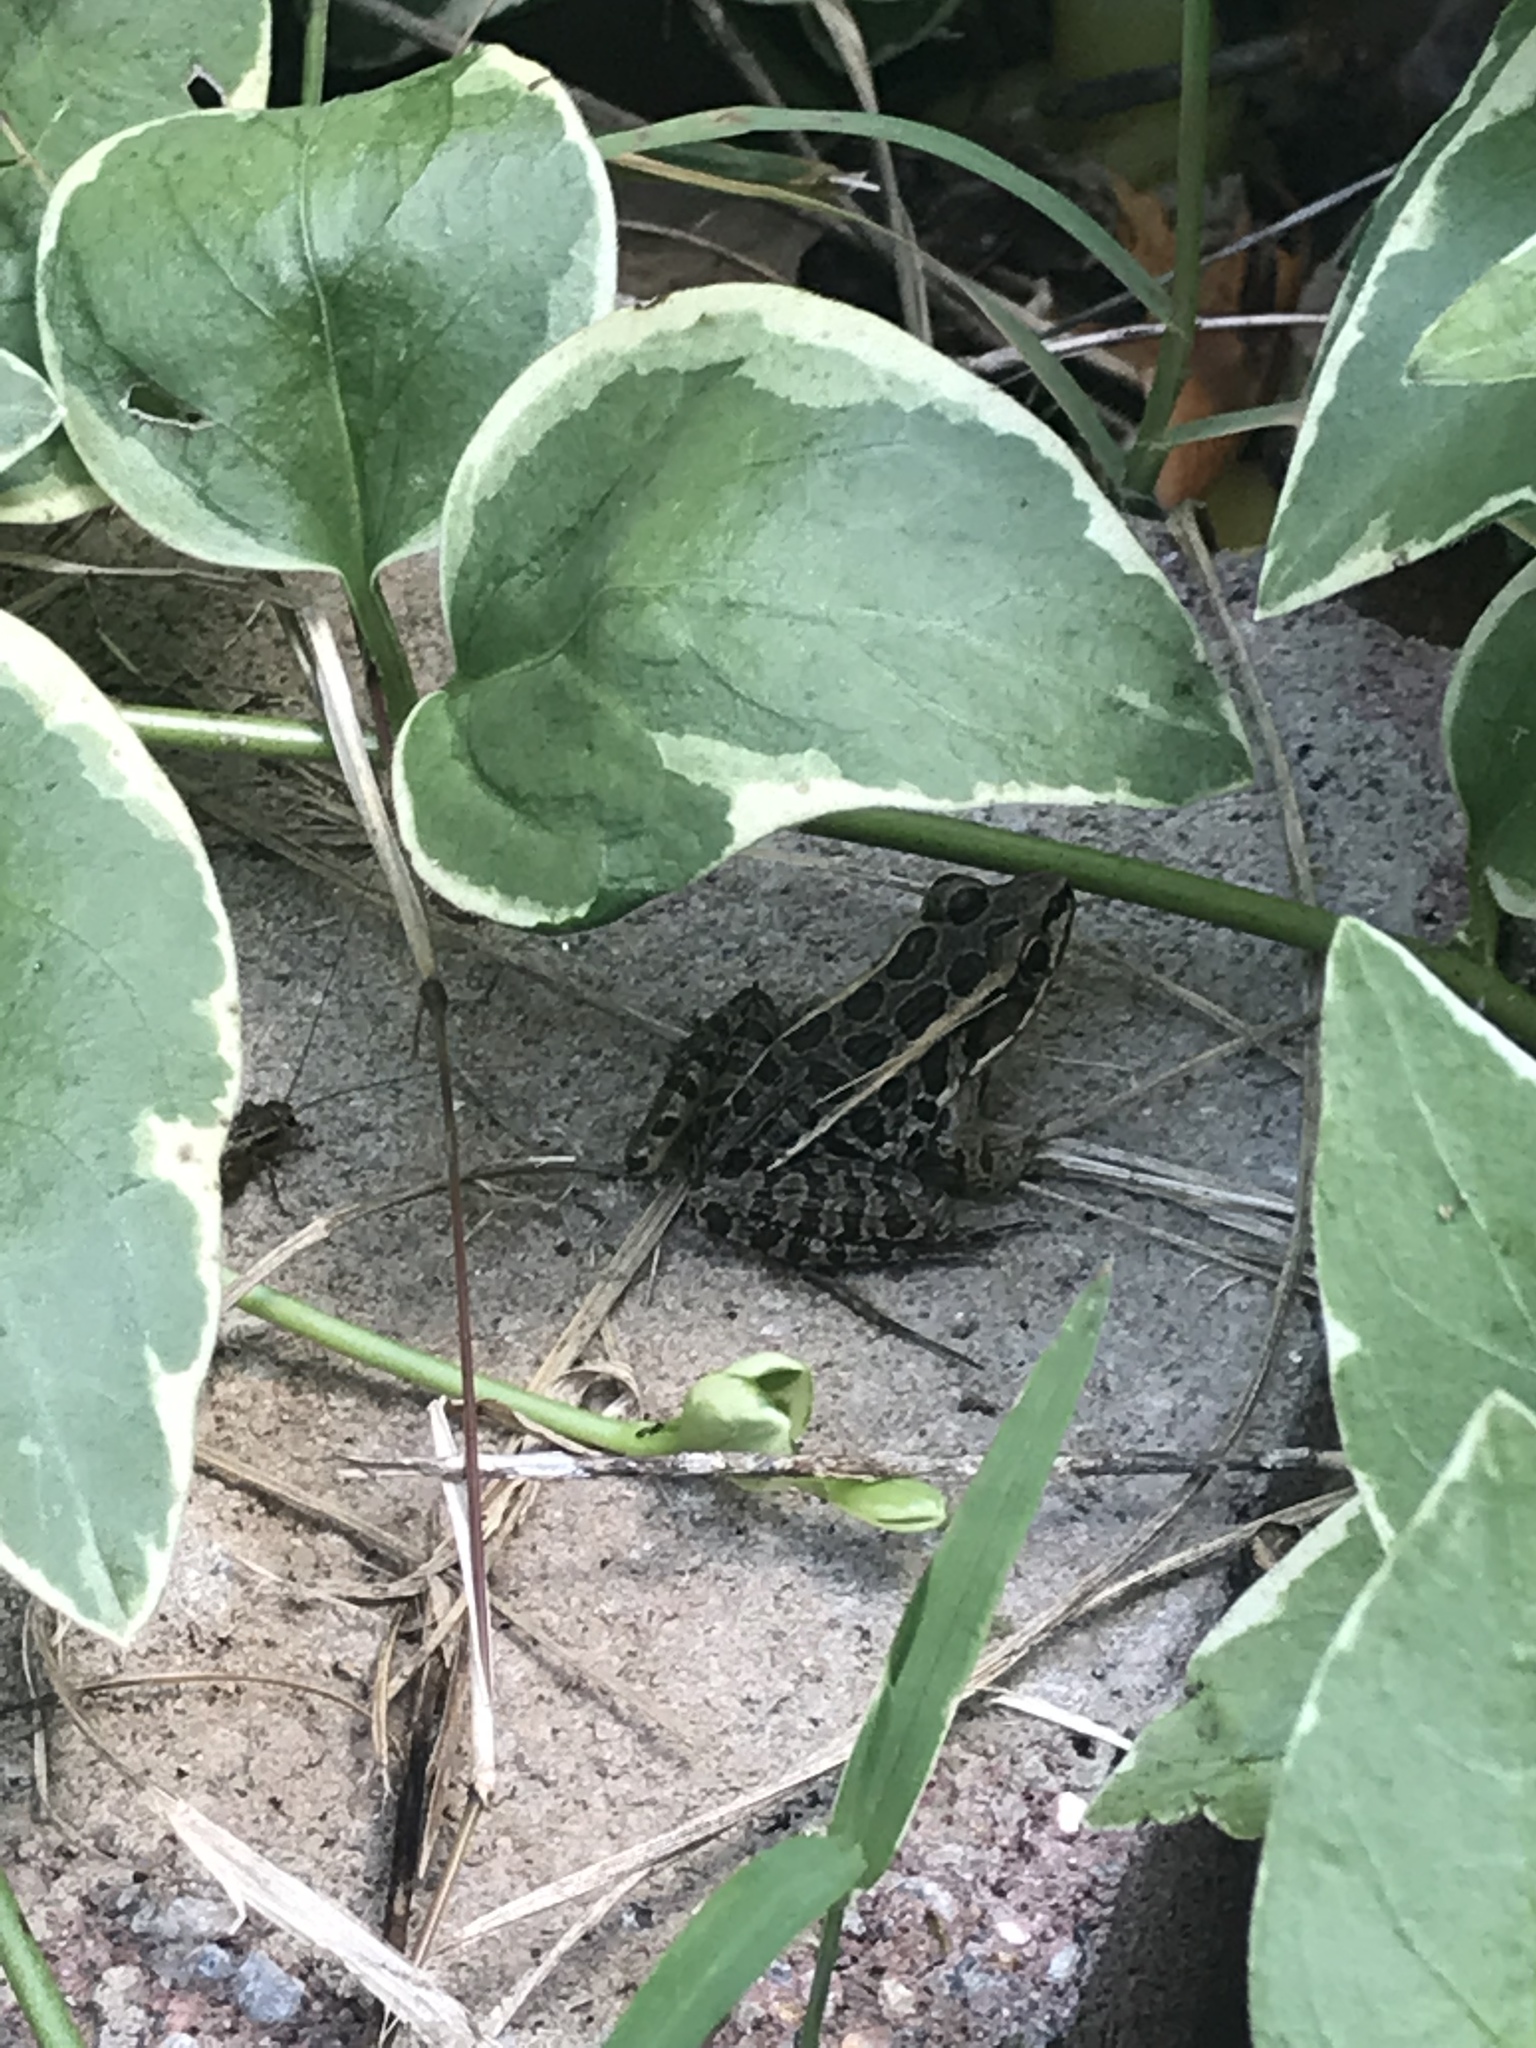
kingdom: Animalia
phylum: Chordata
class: Amphibia
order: Anura
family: Ranidae
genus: Lithobates
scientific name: Lithobates palustris
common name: Pickerel frog
